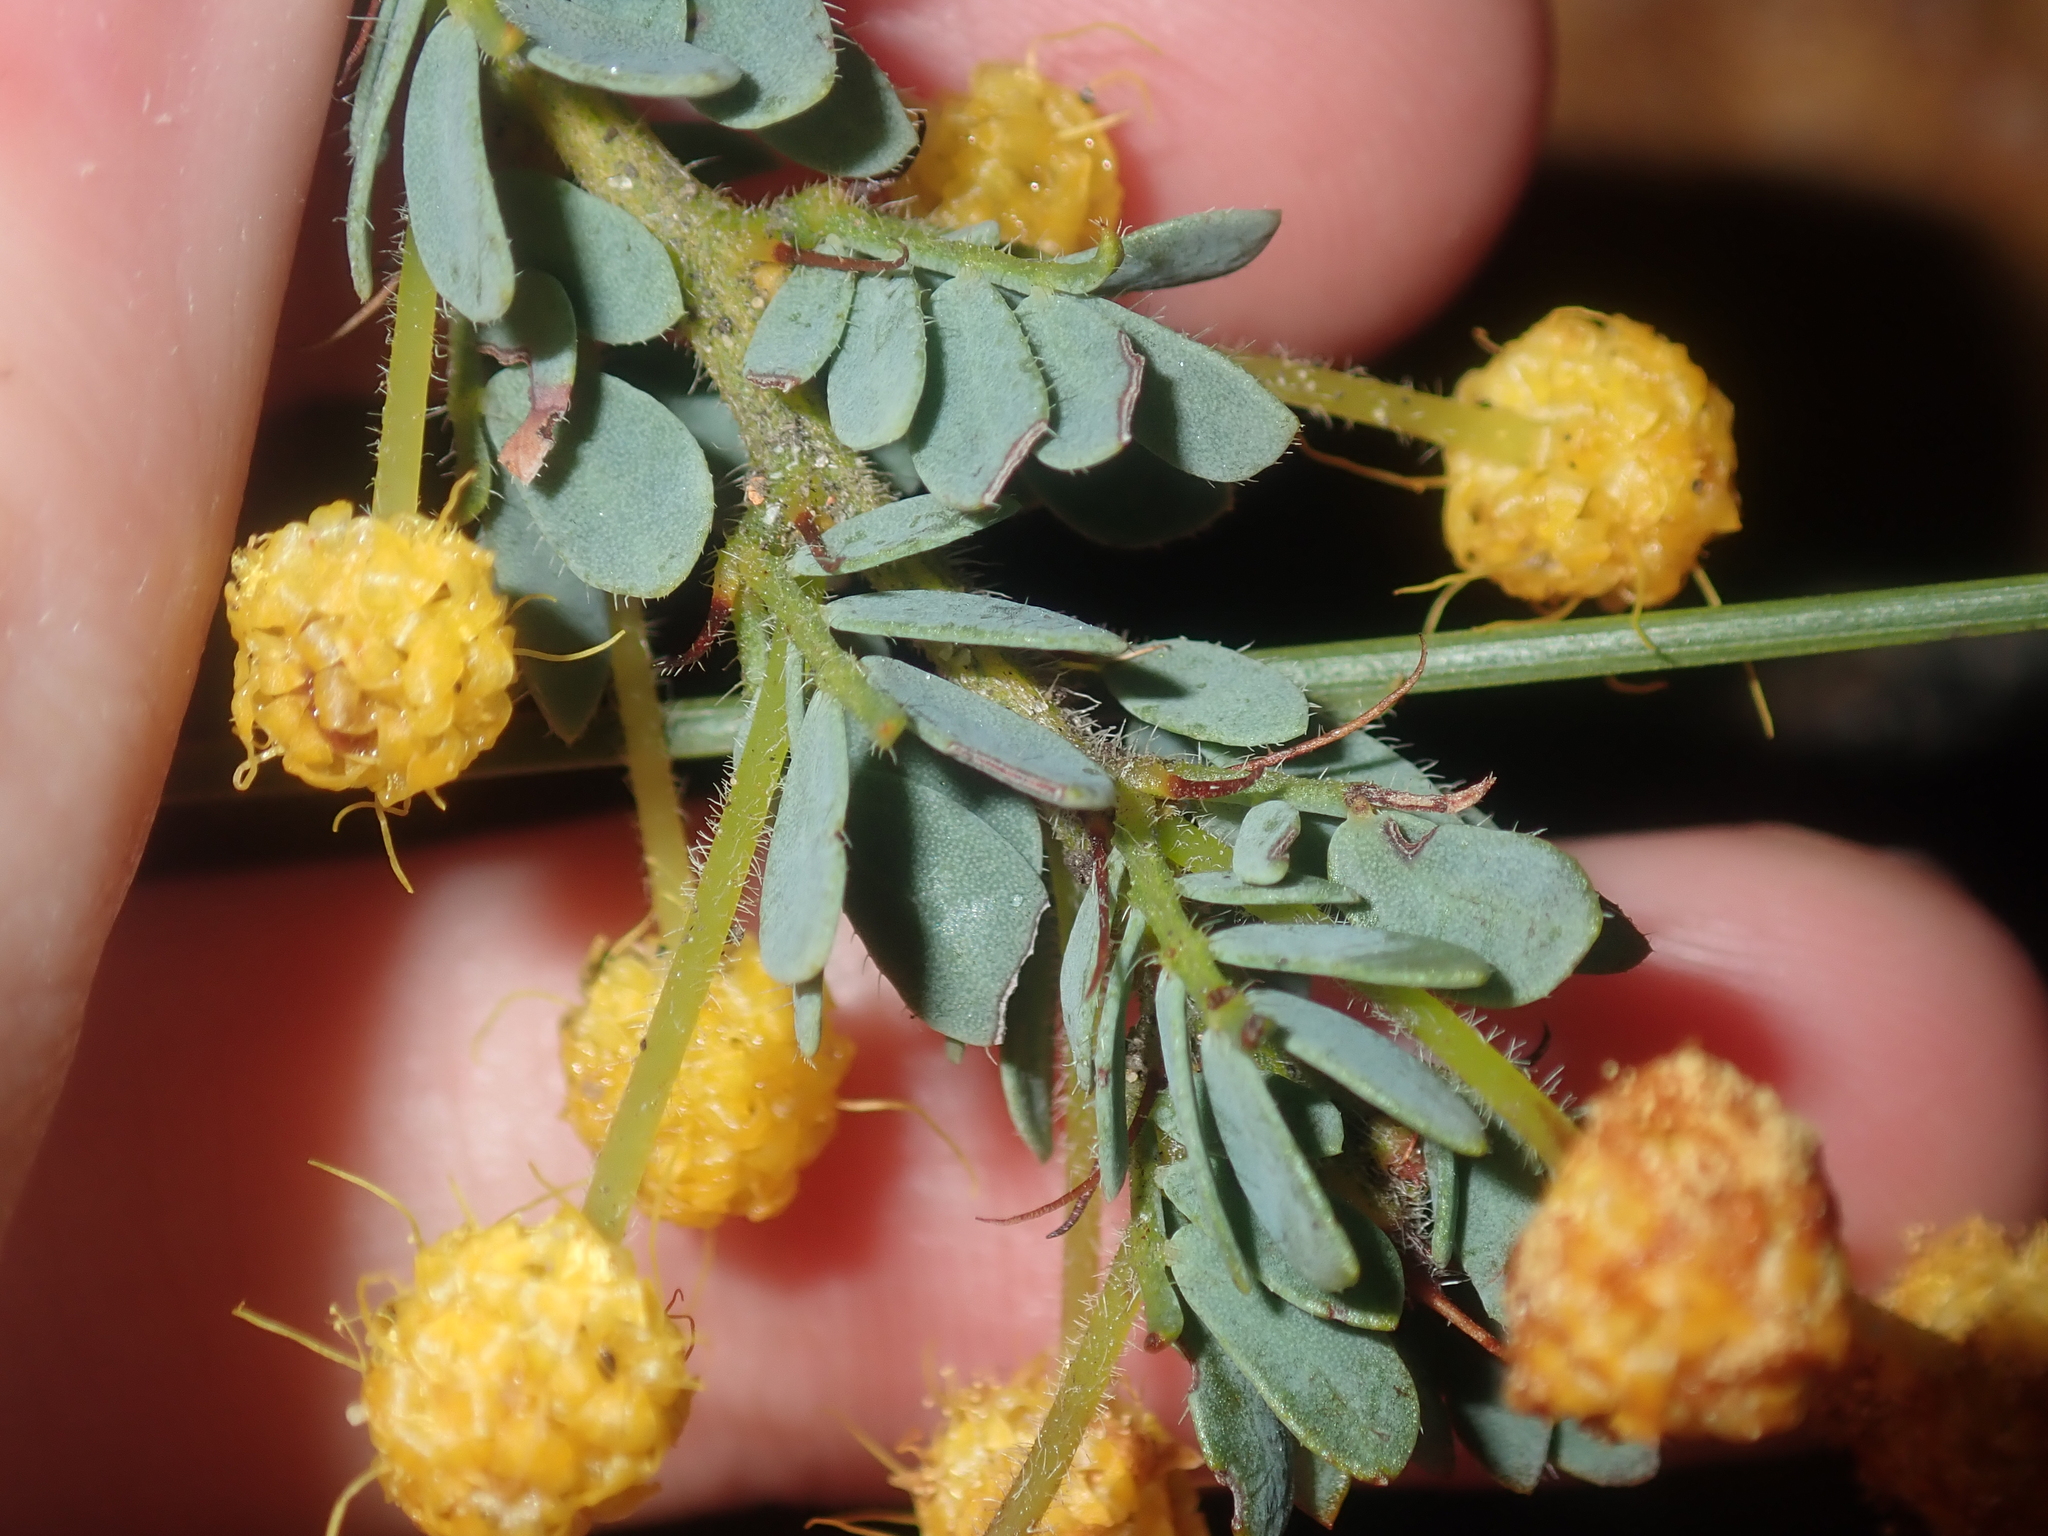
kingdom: Plantae
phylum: Tracheophyta
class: Magnoliopsida
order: Fabales
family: Fabaceae
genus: Acacia
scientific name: Acacia moirii
